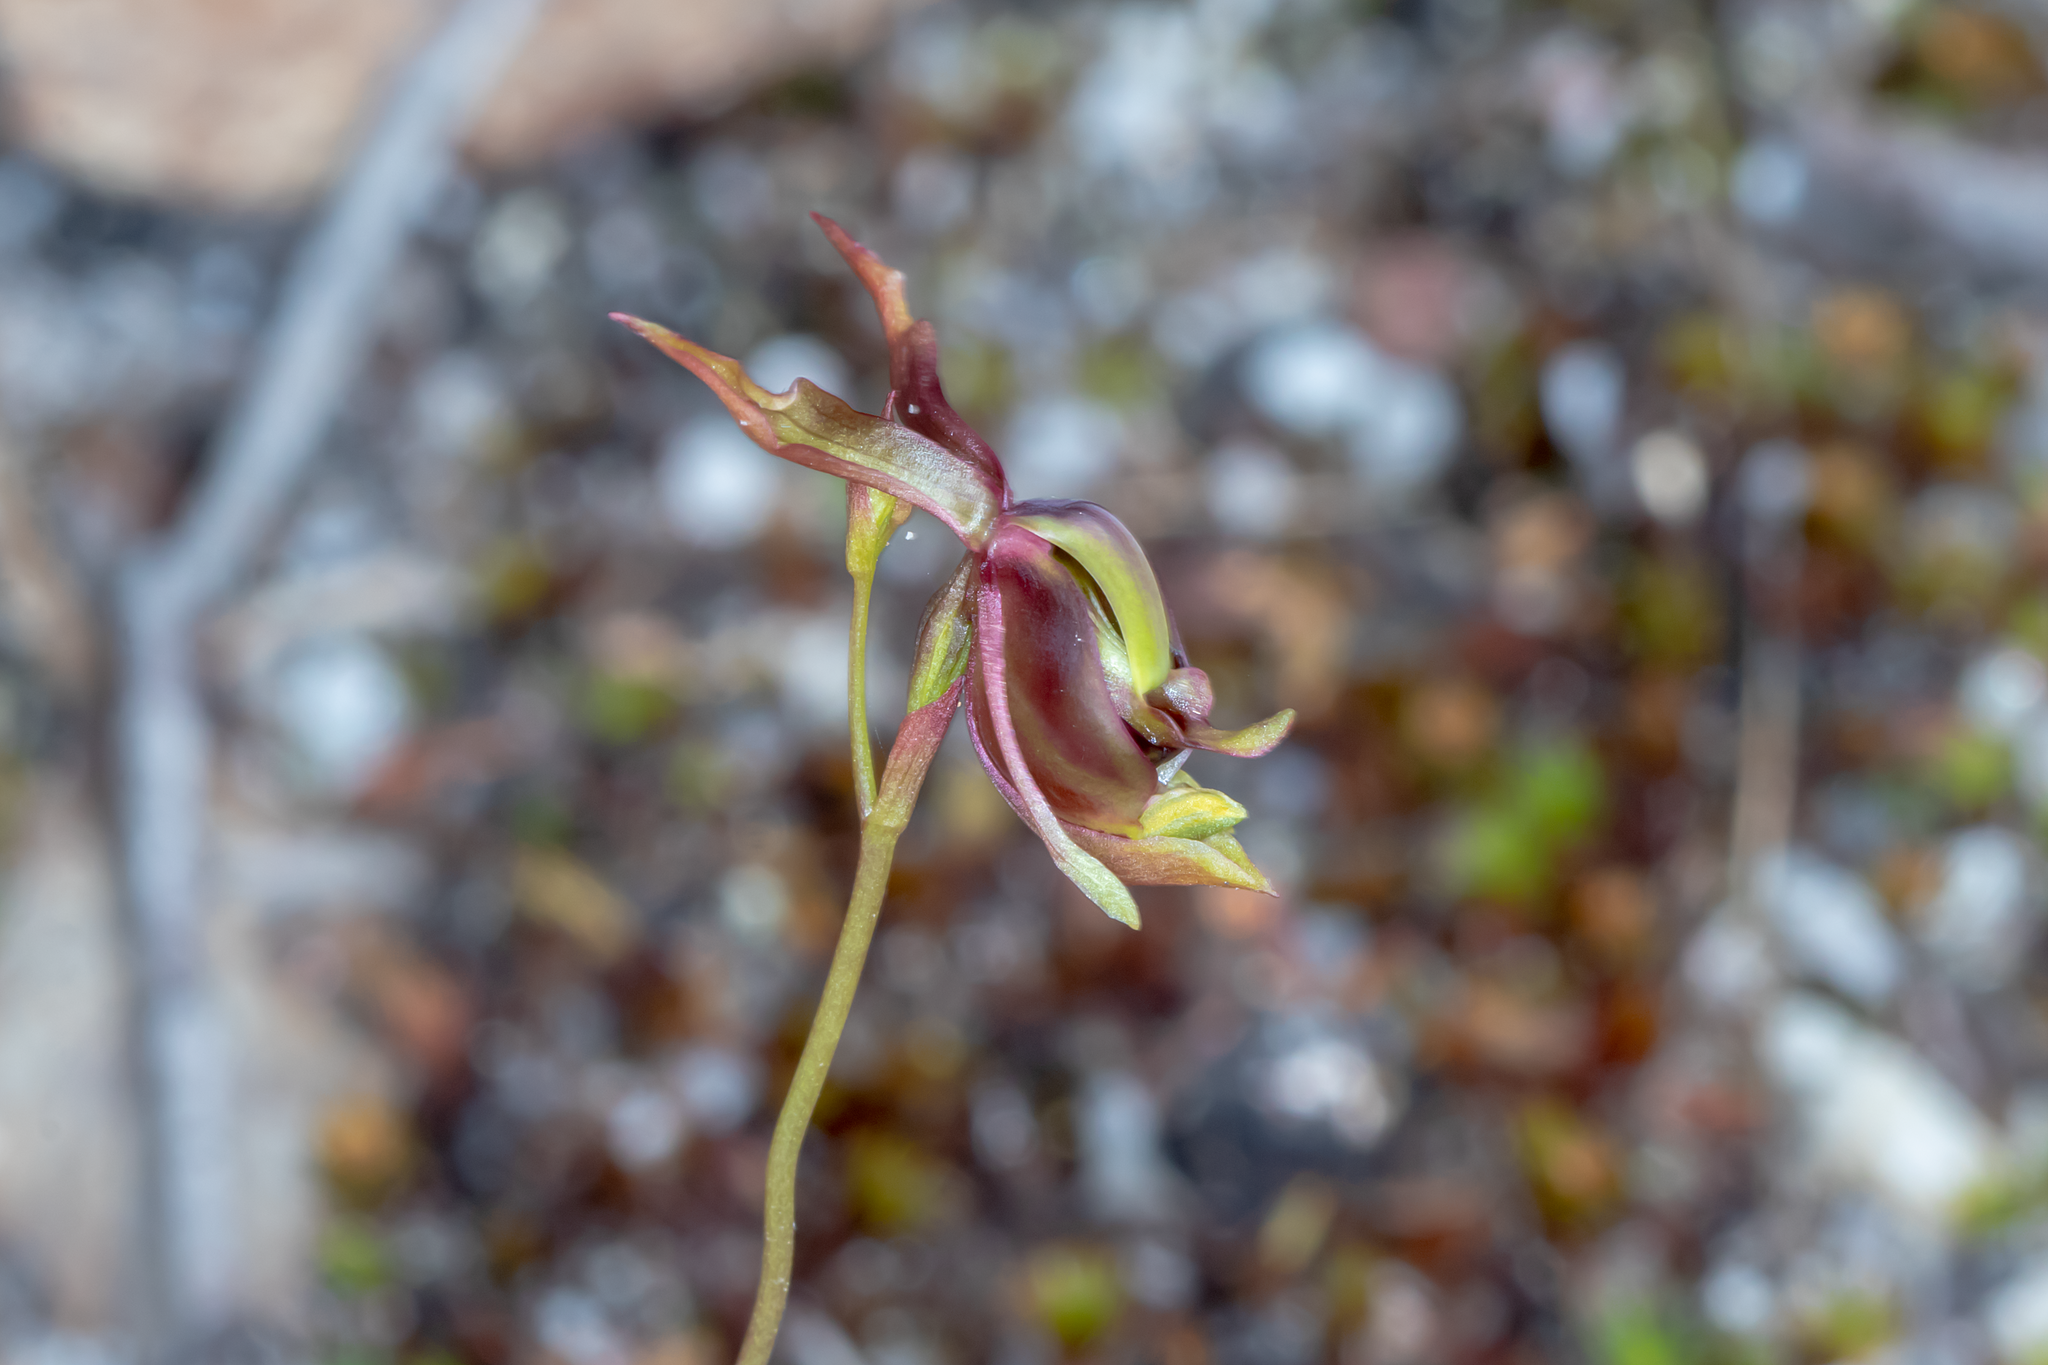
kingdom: Plantae
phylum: Tracheophyta
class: Liliopsida
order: Asparagales
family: Orchidaceae
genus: Caleana
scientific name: Caleana major
